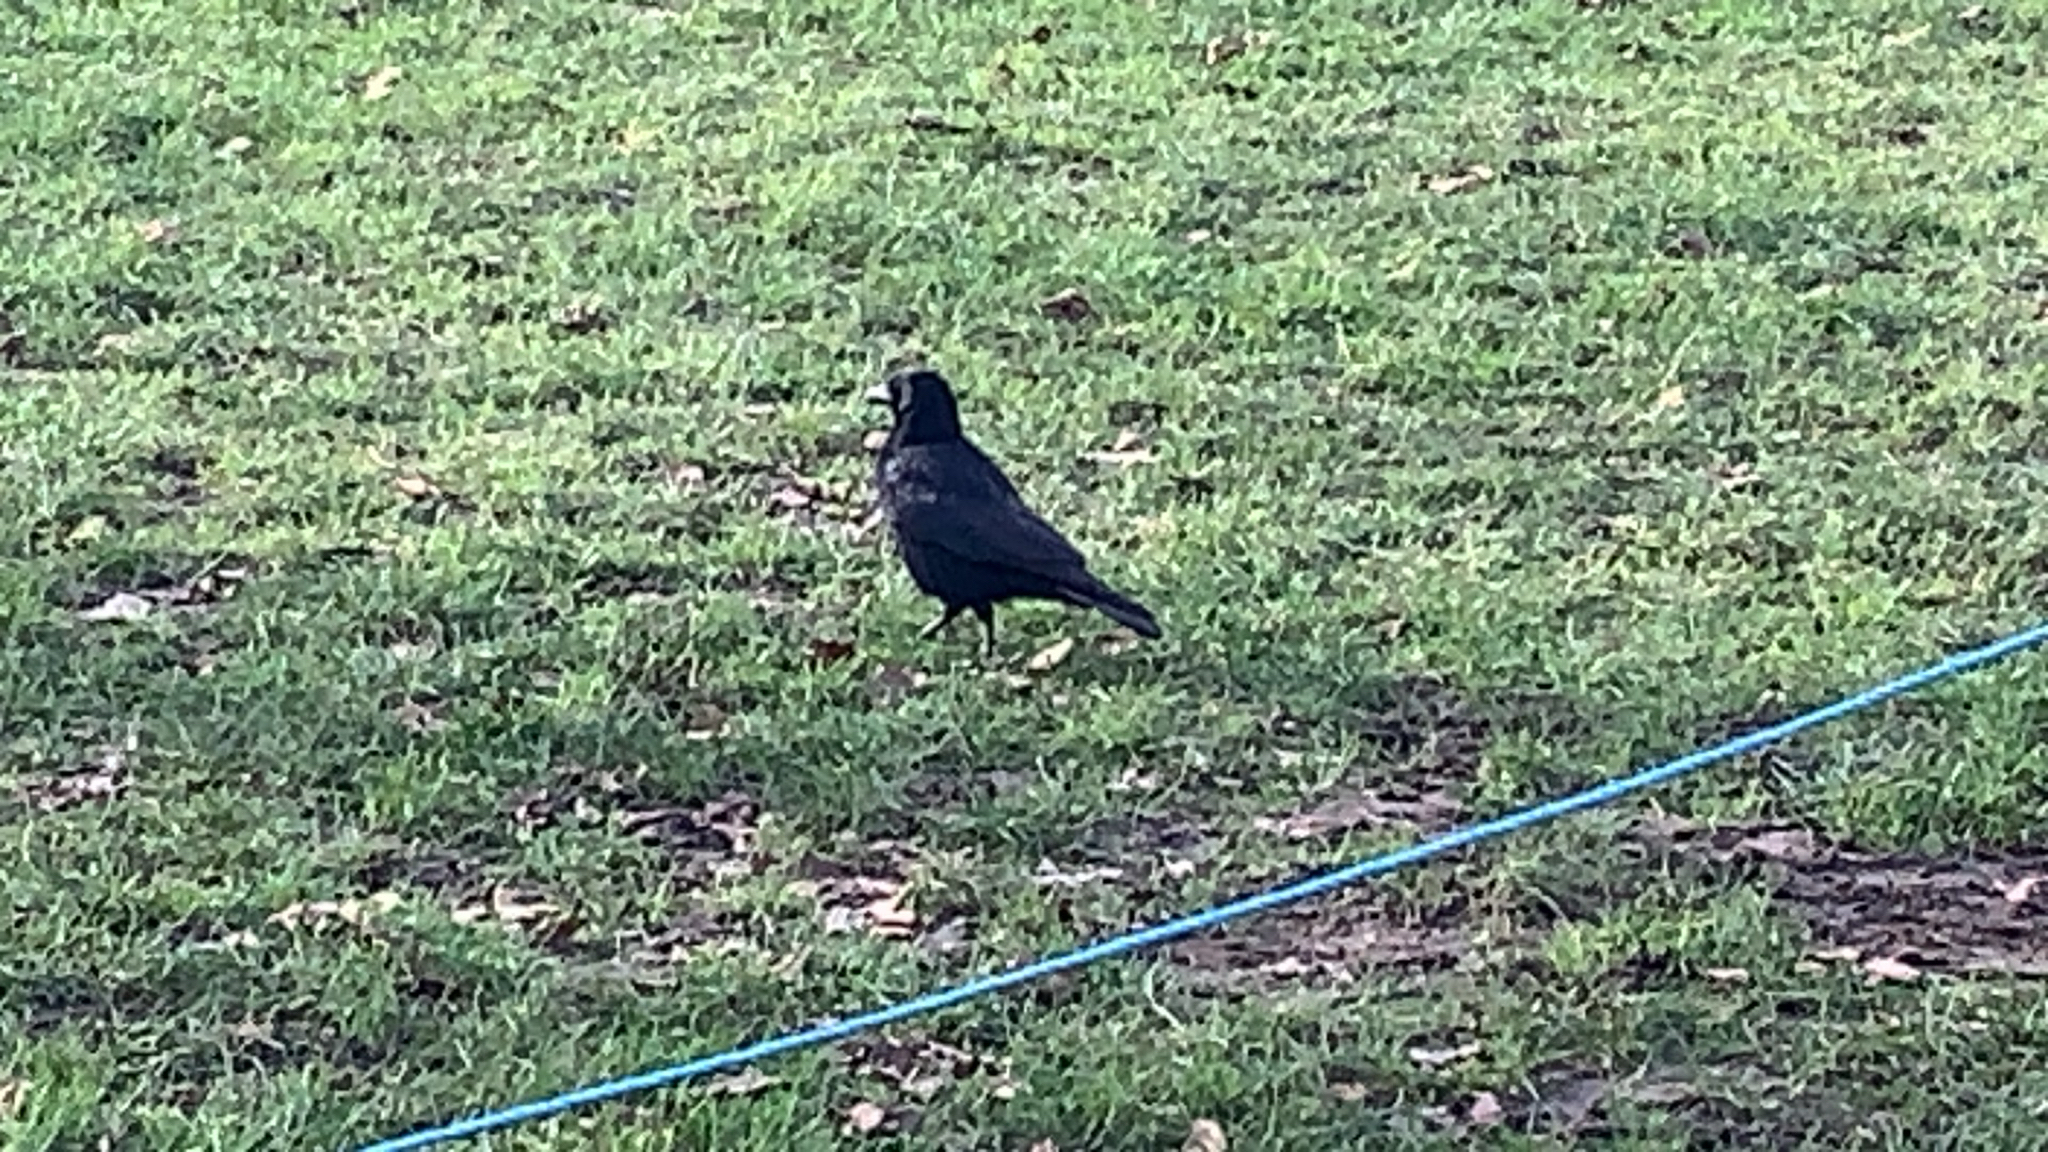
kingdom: Animalia
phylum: Chordata
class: Aves
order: Passeriformes
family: Corvidae
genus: Corvus
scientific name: Corvus frugilegus
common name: Rook
